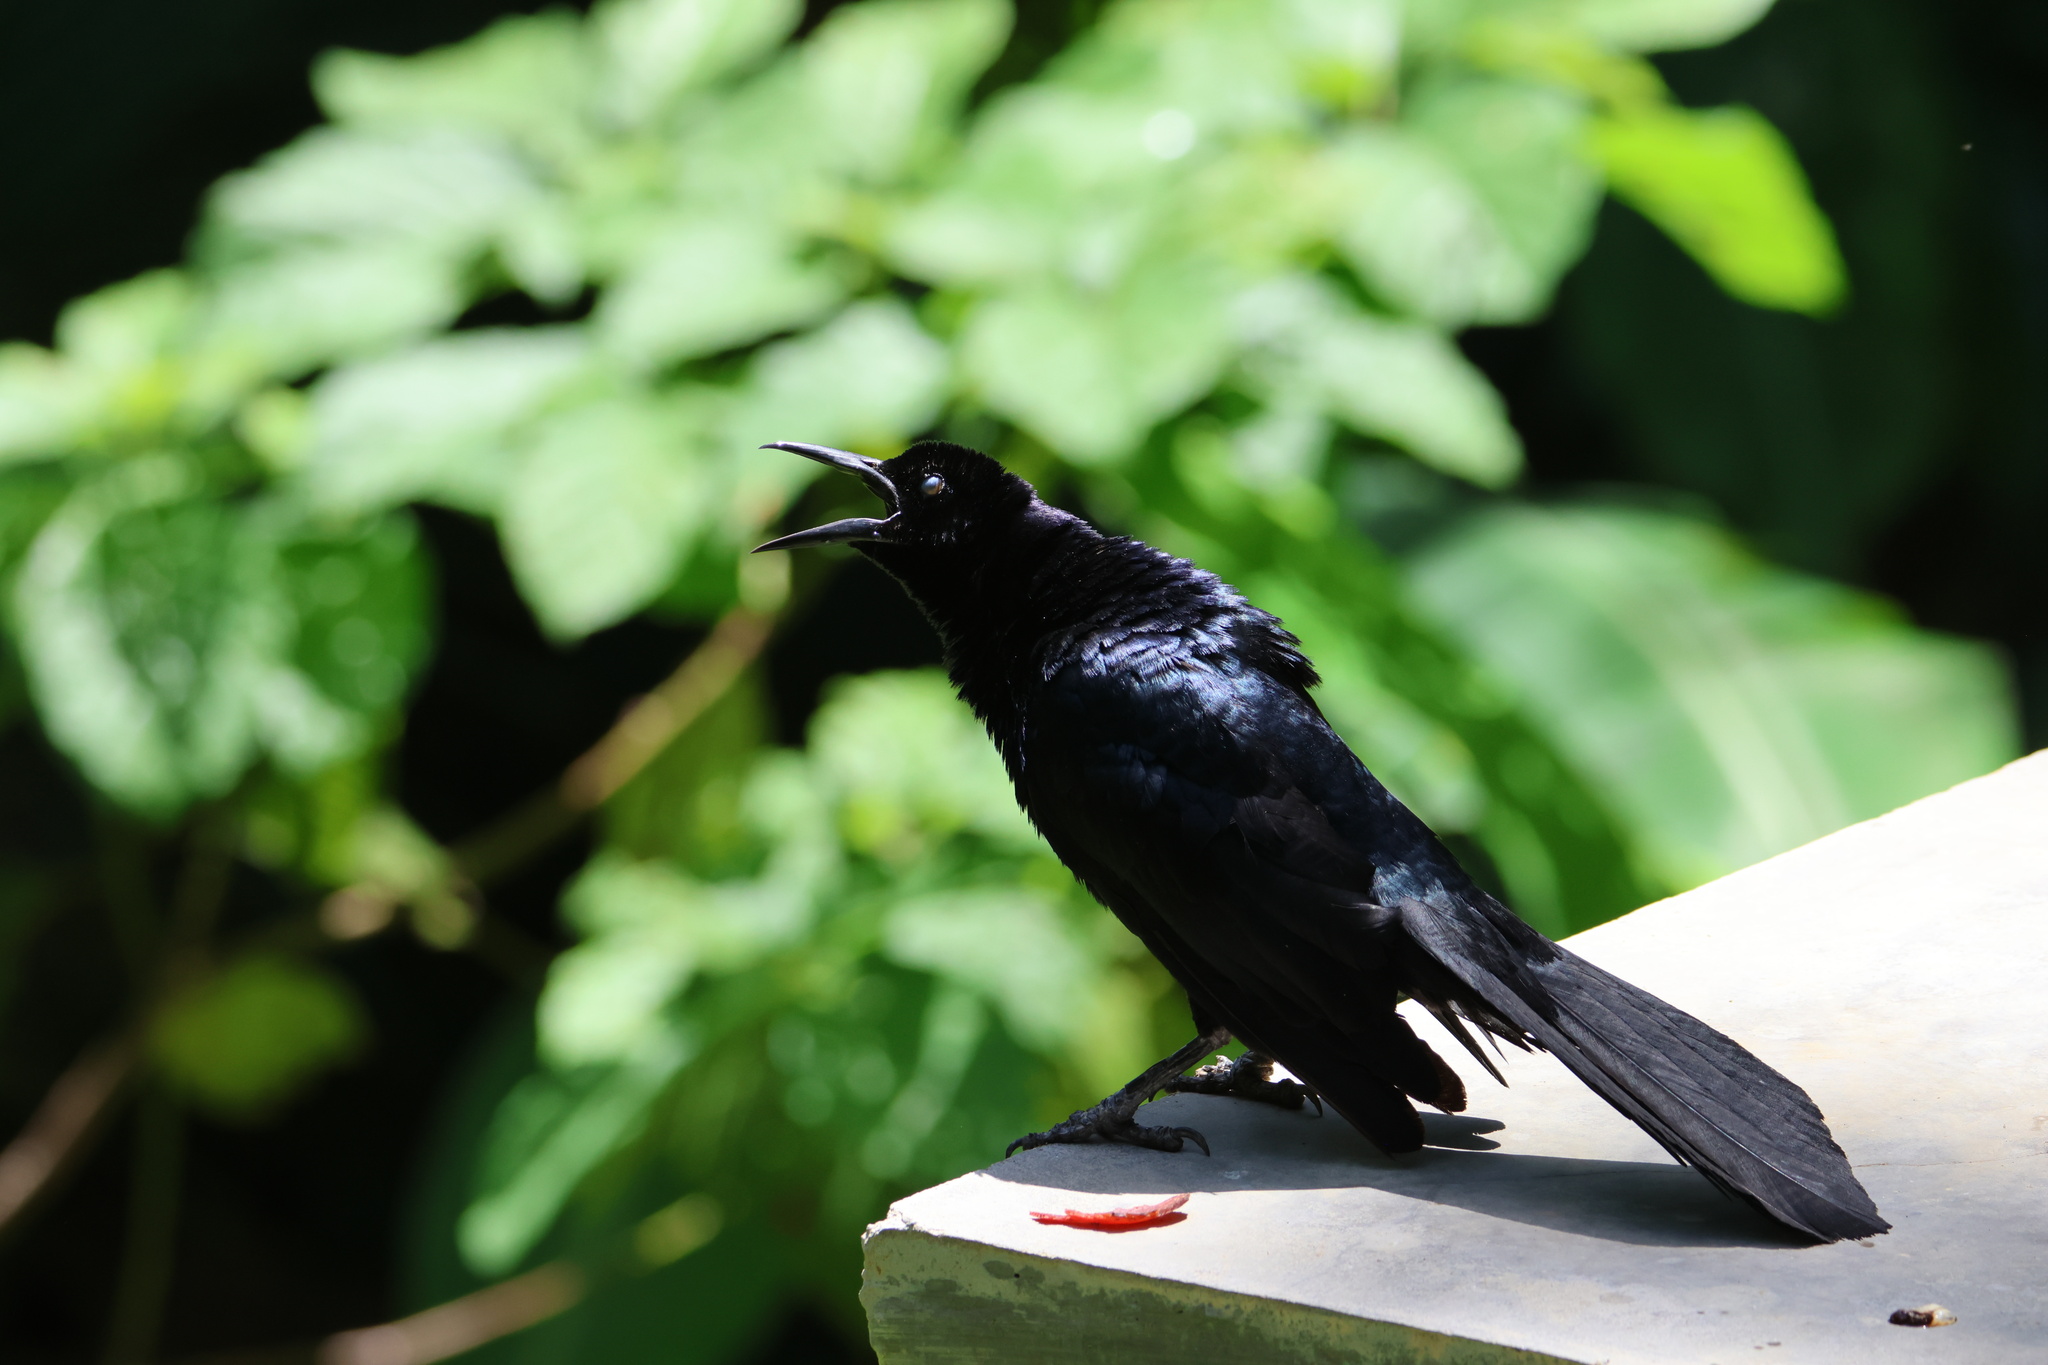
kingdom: Animalia
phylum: Chordata
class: Aves
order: Passeriformes
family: Icteridae
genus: Quiscalus
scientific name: Quiscalus mexicanus
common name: Great-tailed grackle
